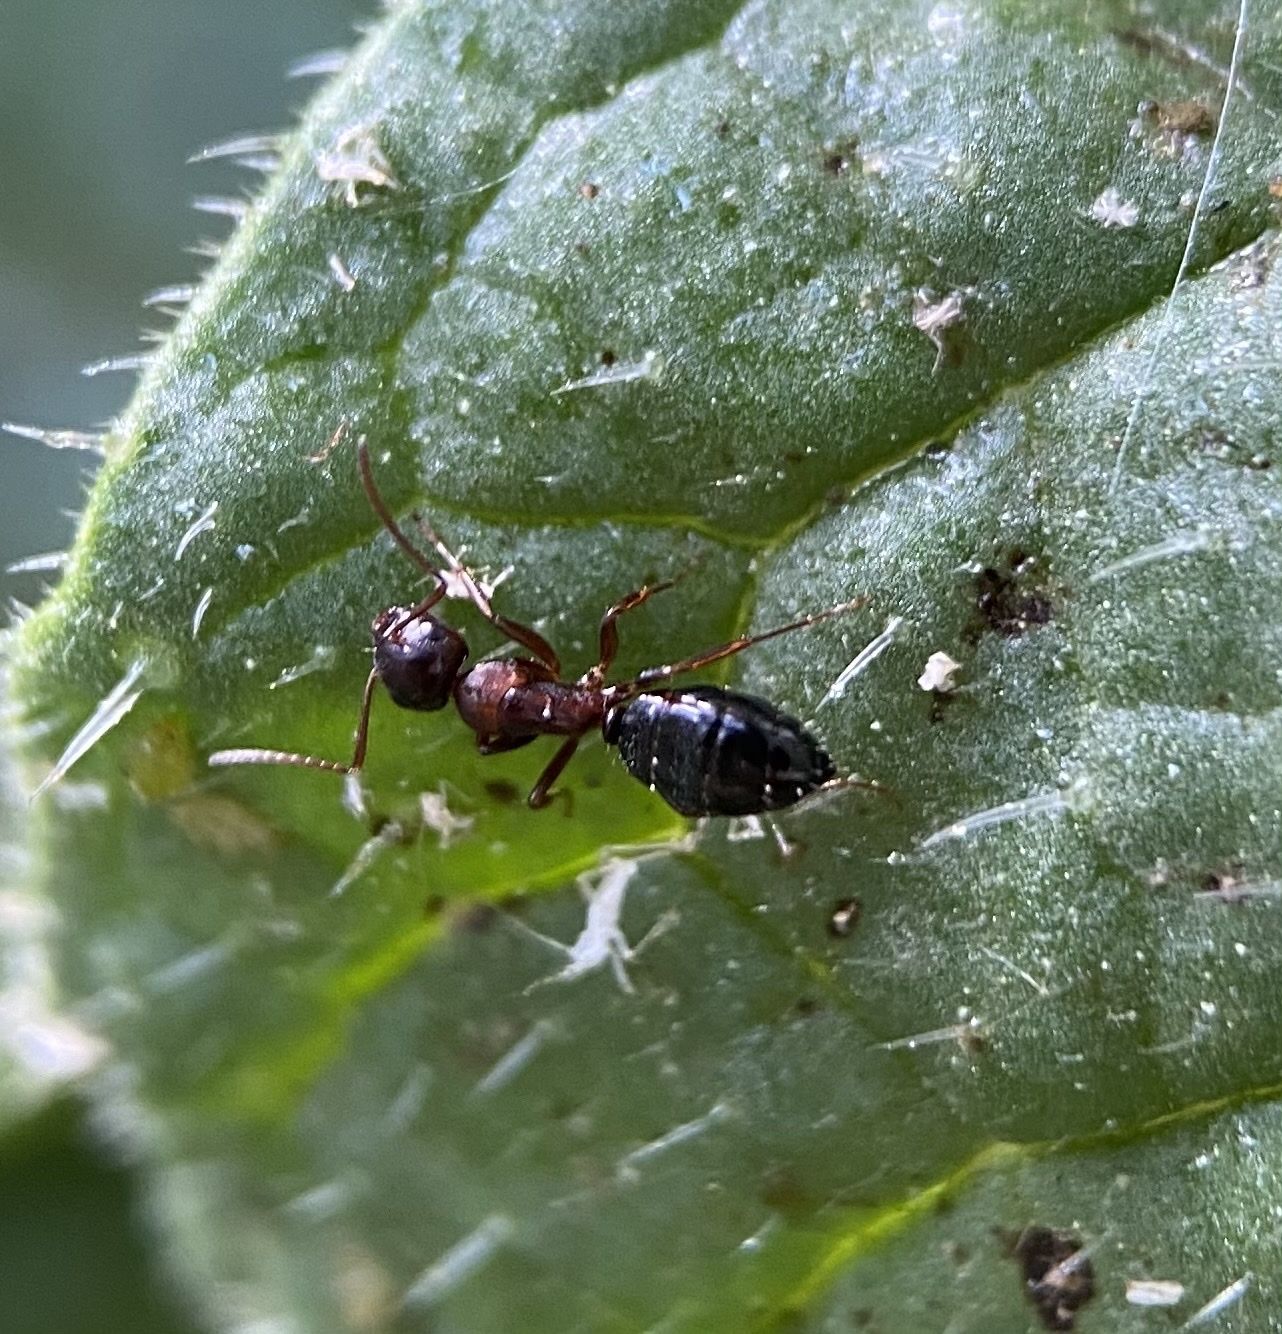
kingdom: Animalia
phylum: Arthropoda
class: Insecta
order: Hymenoptera
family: Formicidae
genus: Camponotus
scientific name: Camponotus hyatti
